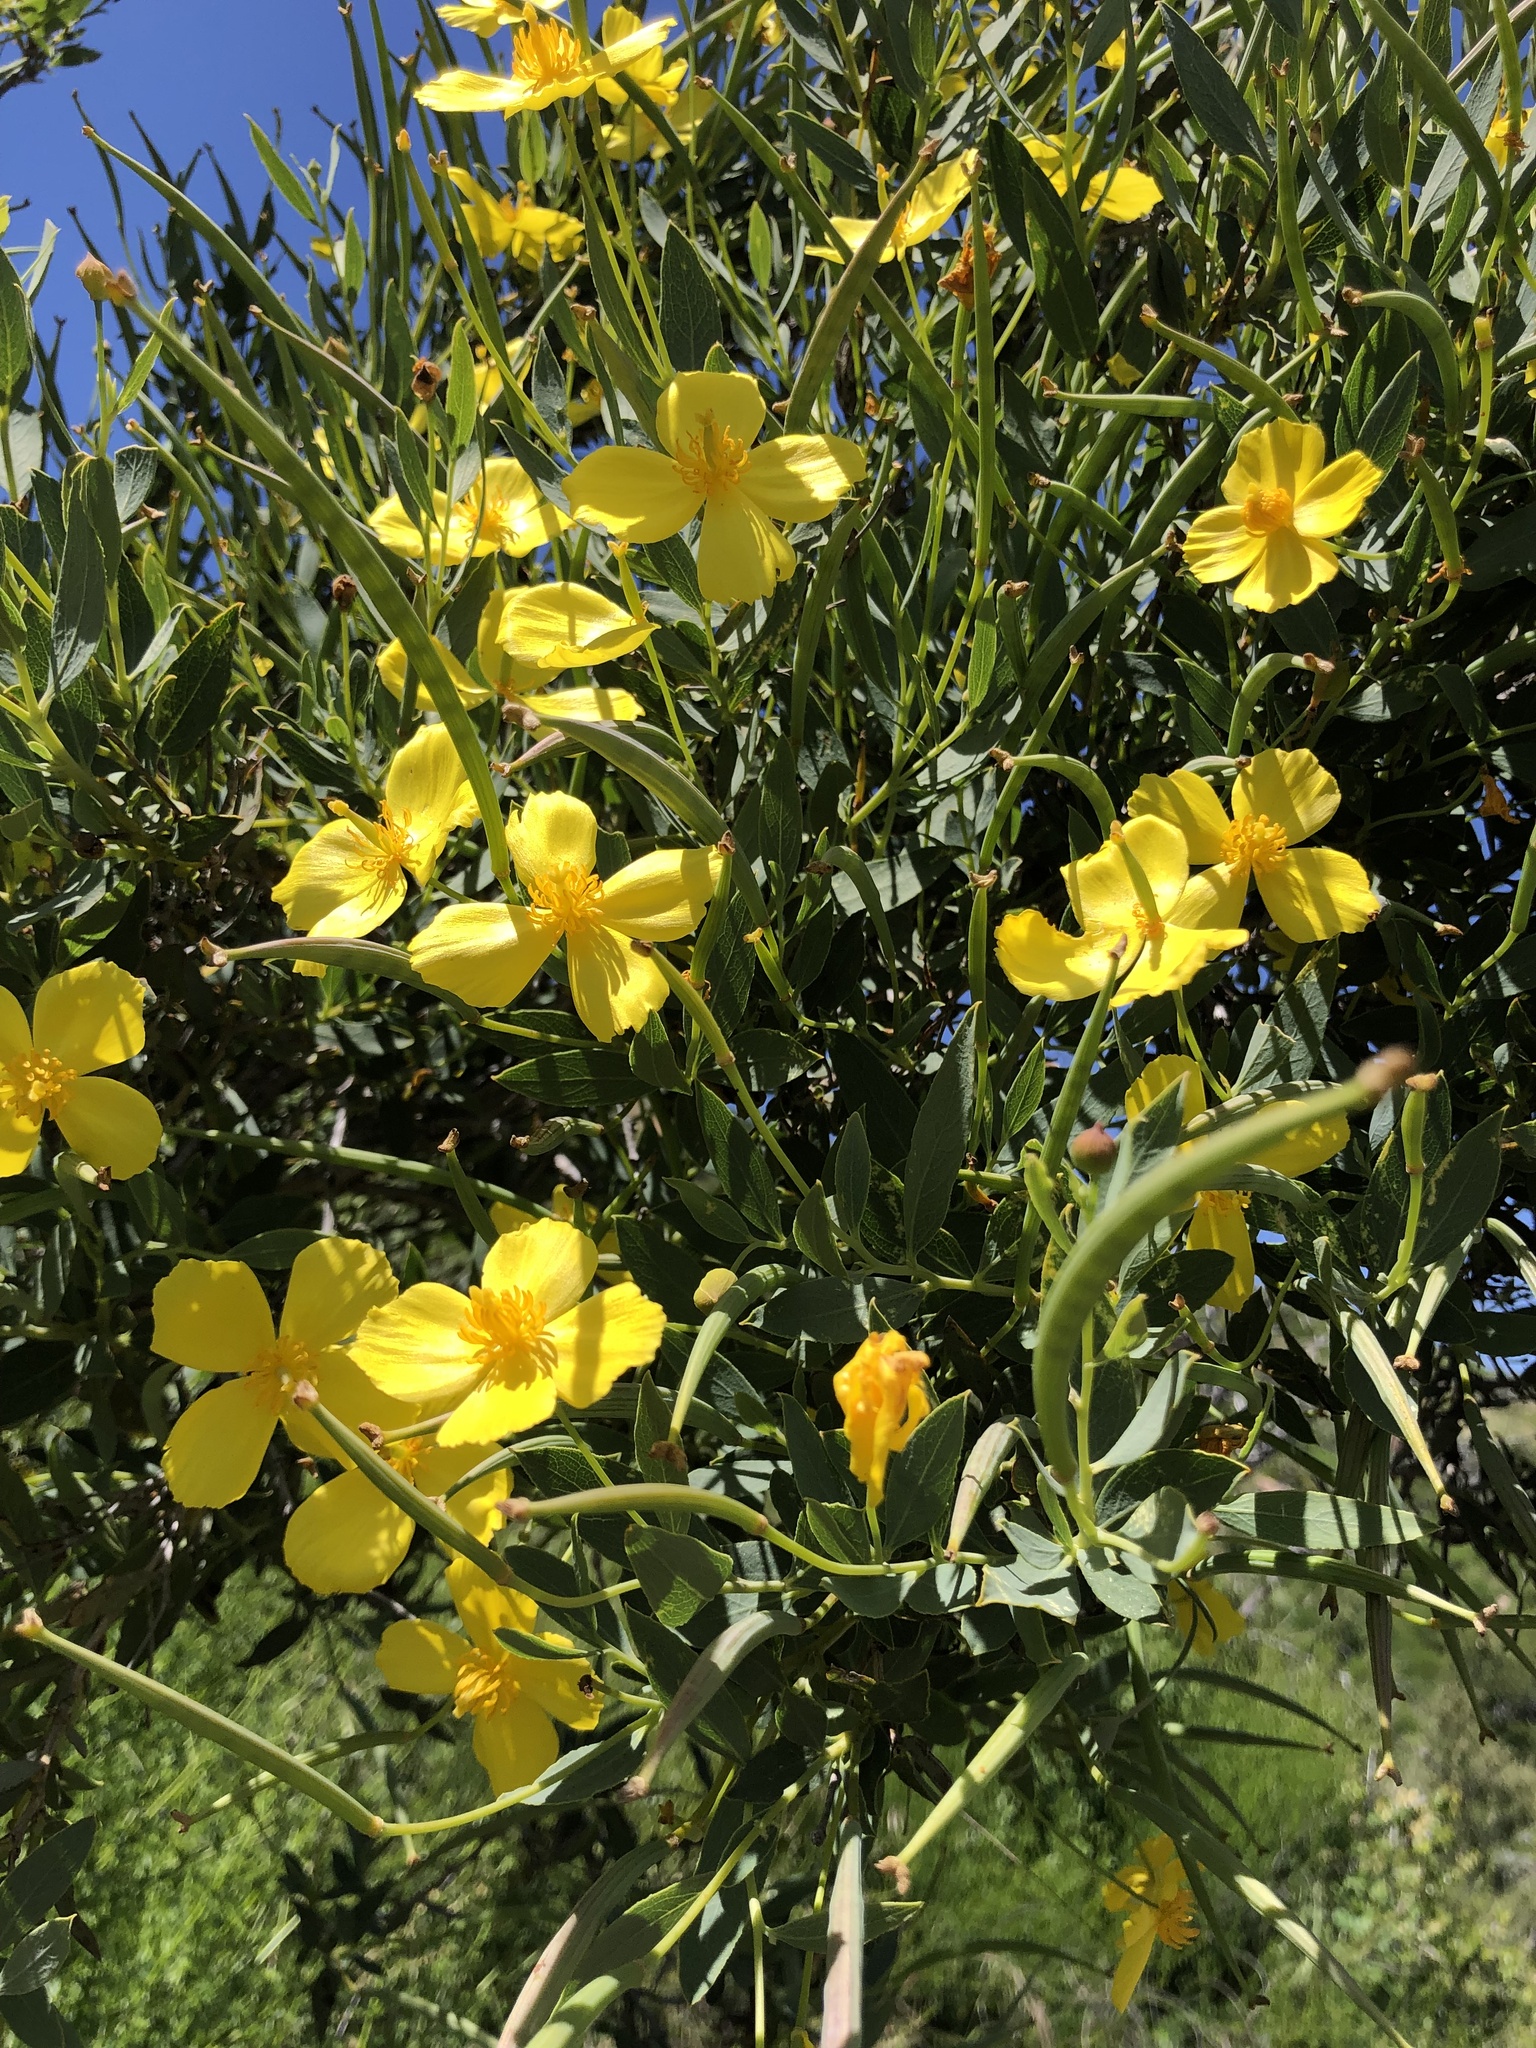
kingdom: Plantae
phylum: Tracheophyta
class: Magnoliopsida
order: Ranunculales
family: Papaveraceae
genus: Dendromecon
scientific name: Dendromecon rigida
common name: Tree poppy
